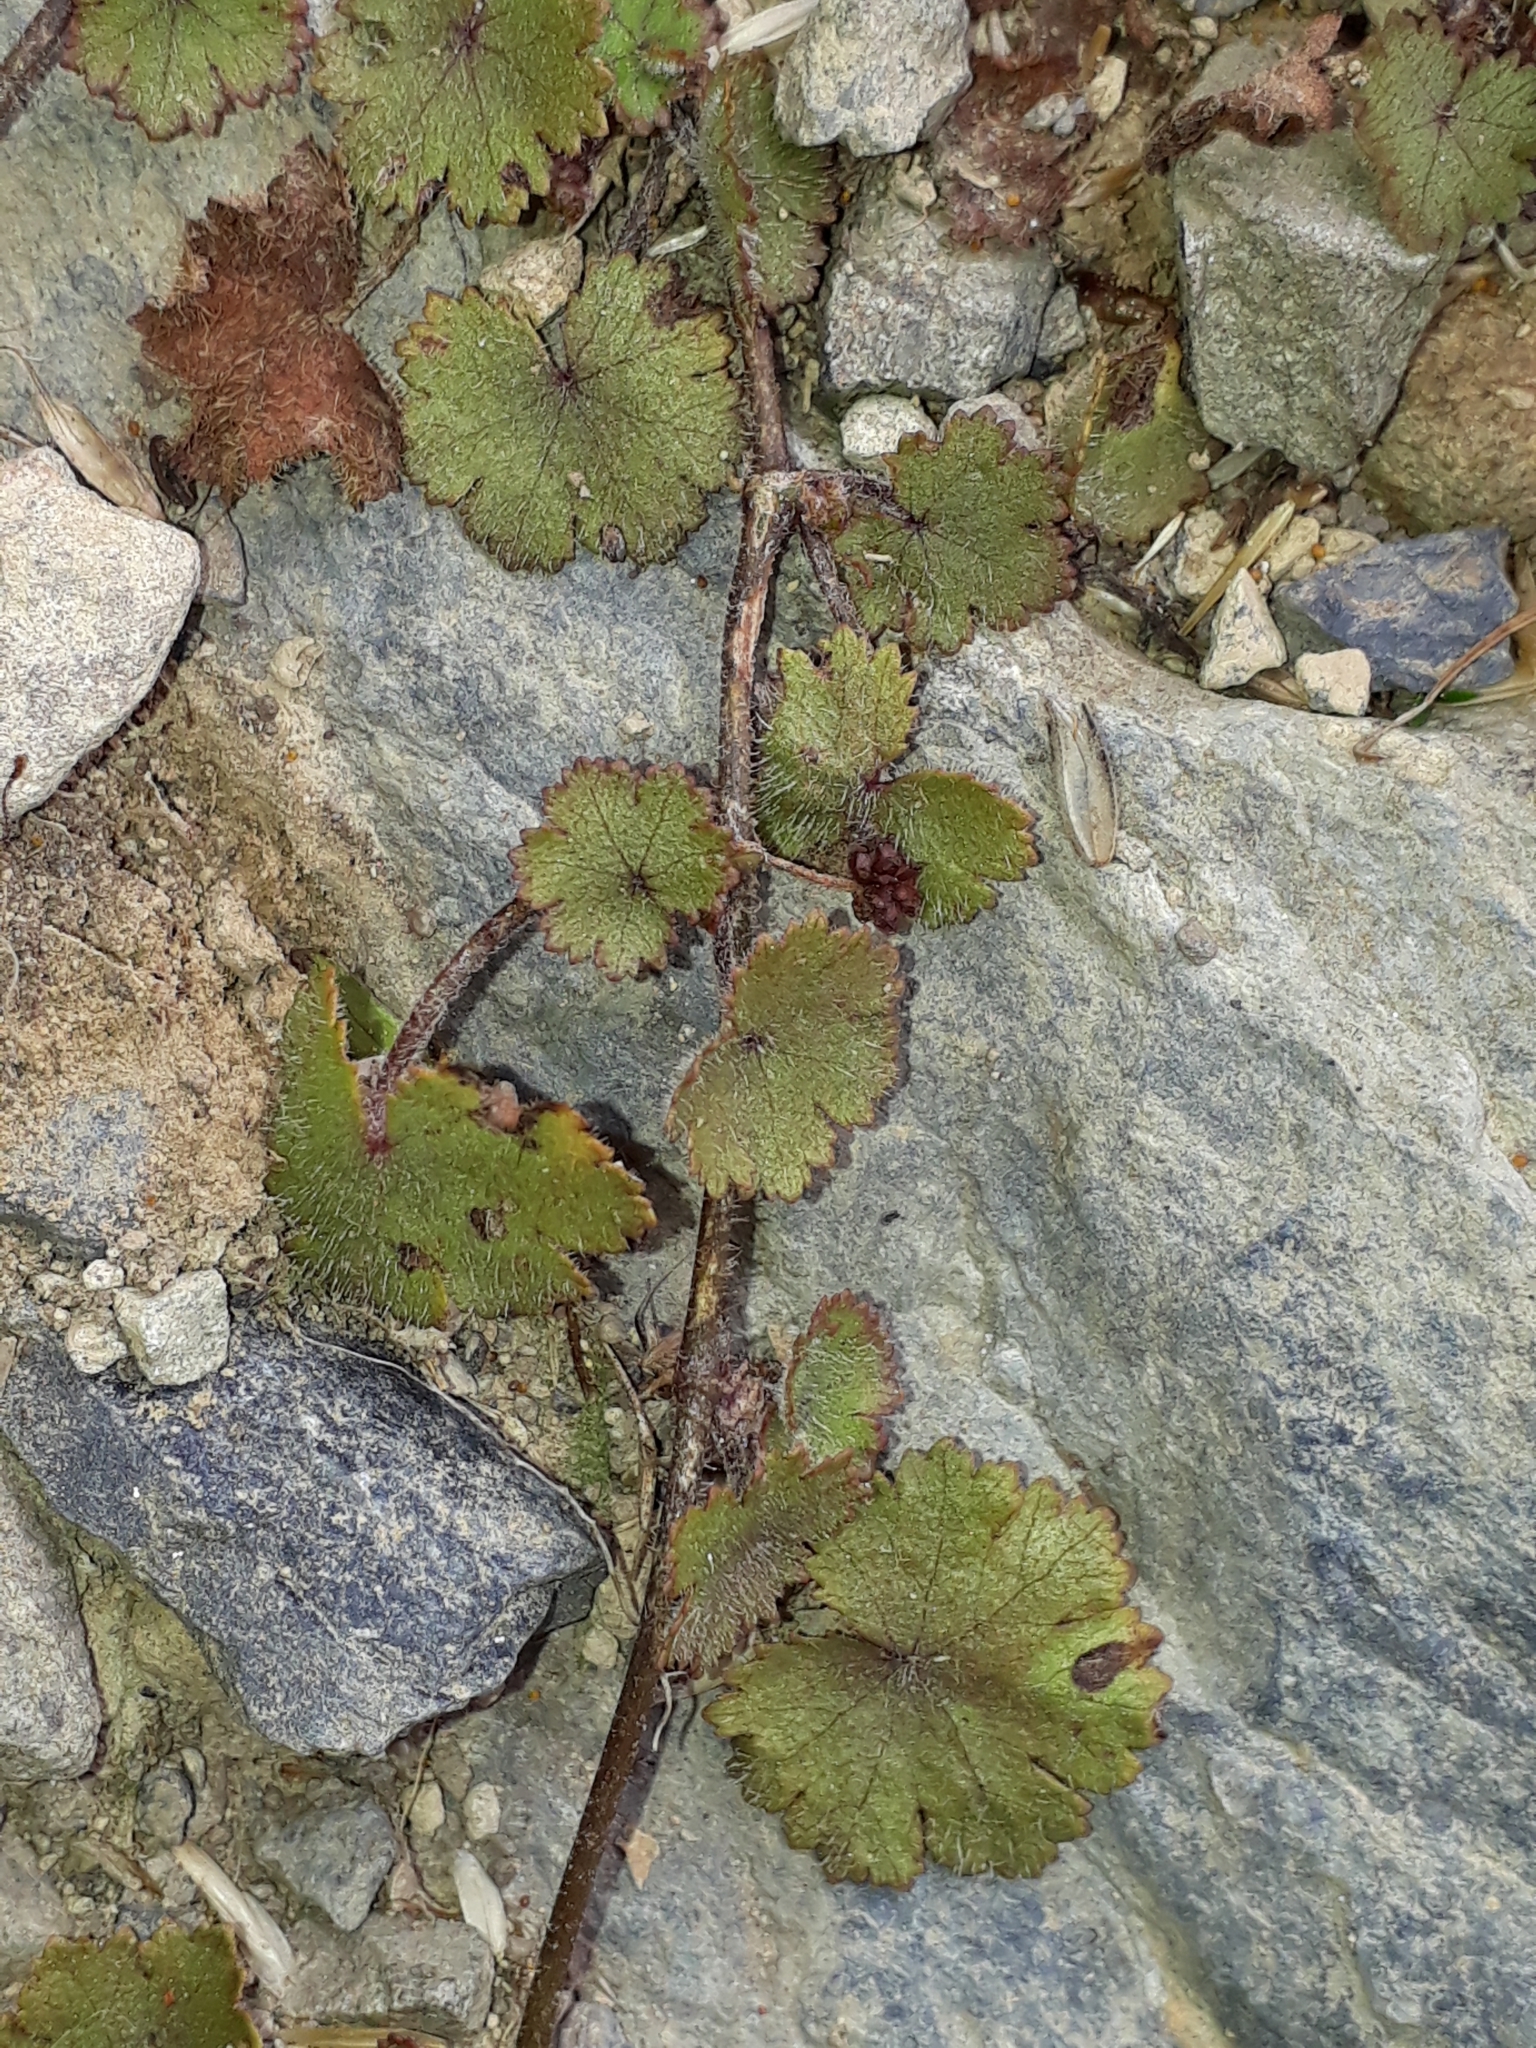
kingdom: Plantae
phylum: Tracheophyta
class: Magnoliopsida
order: Apiales
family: Araliaceae
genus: Hydrocotyle
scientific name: Hydrocotyle moschata
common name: Hairy pennywort
